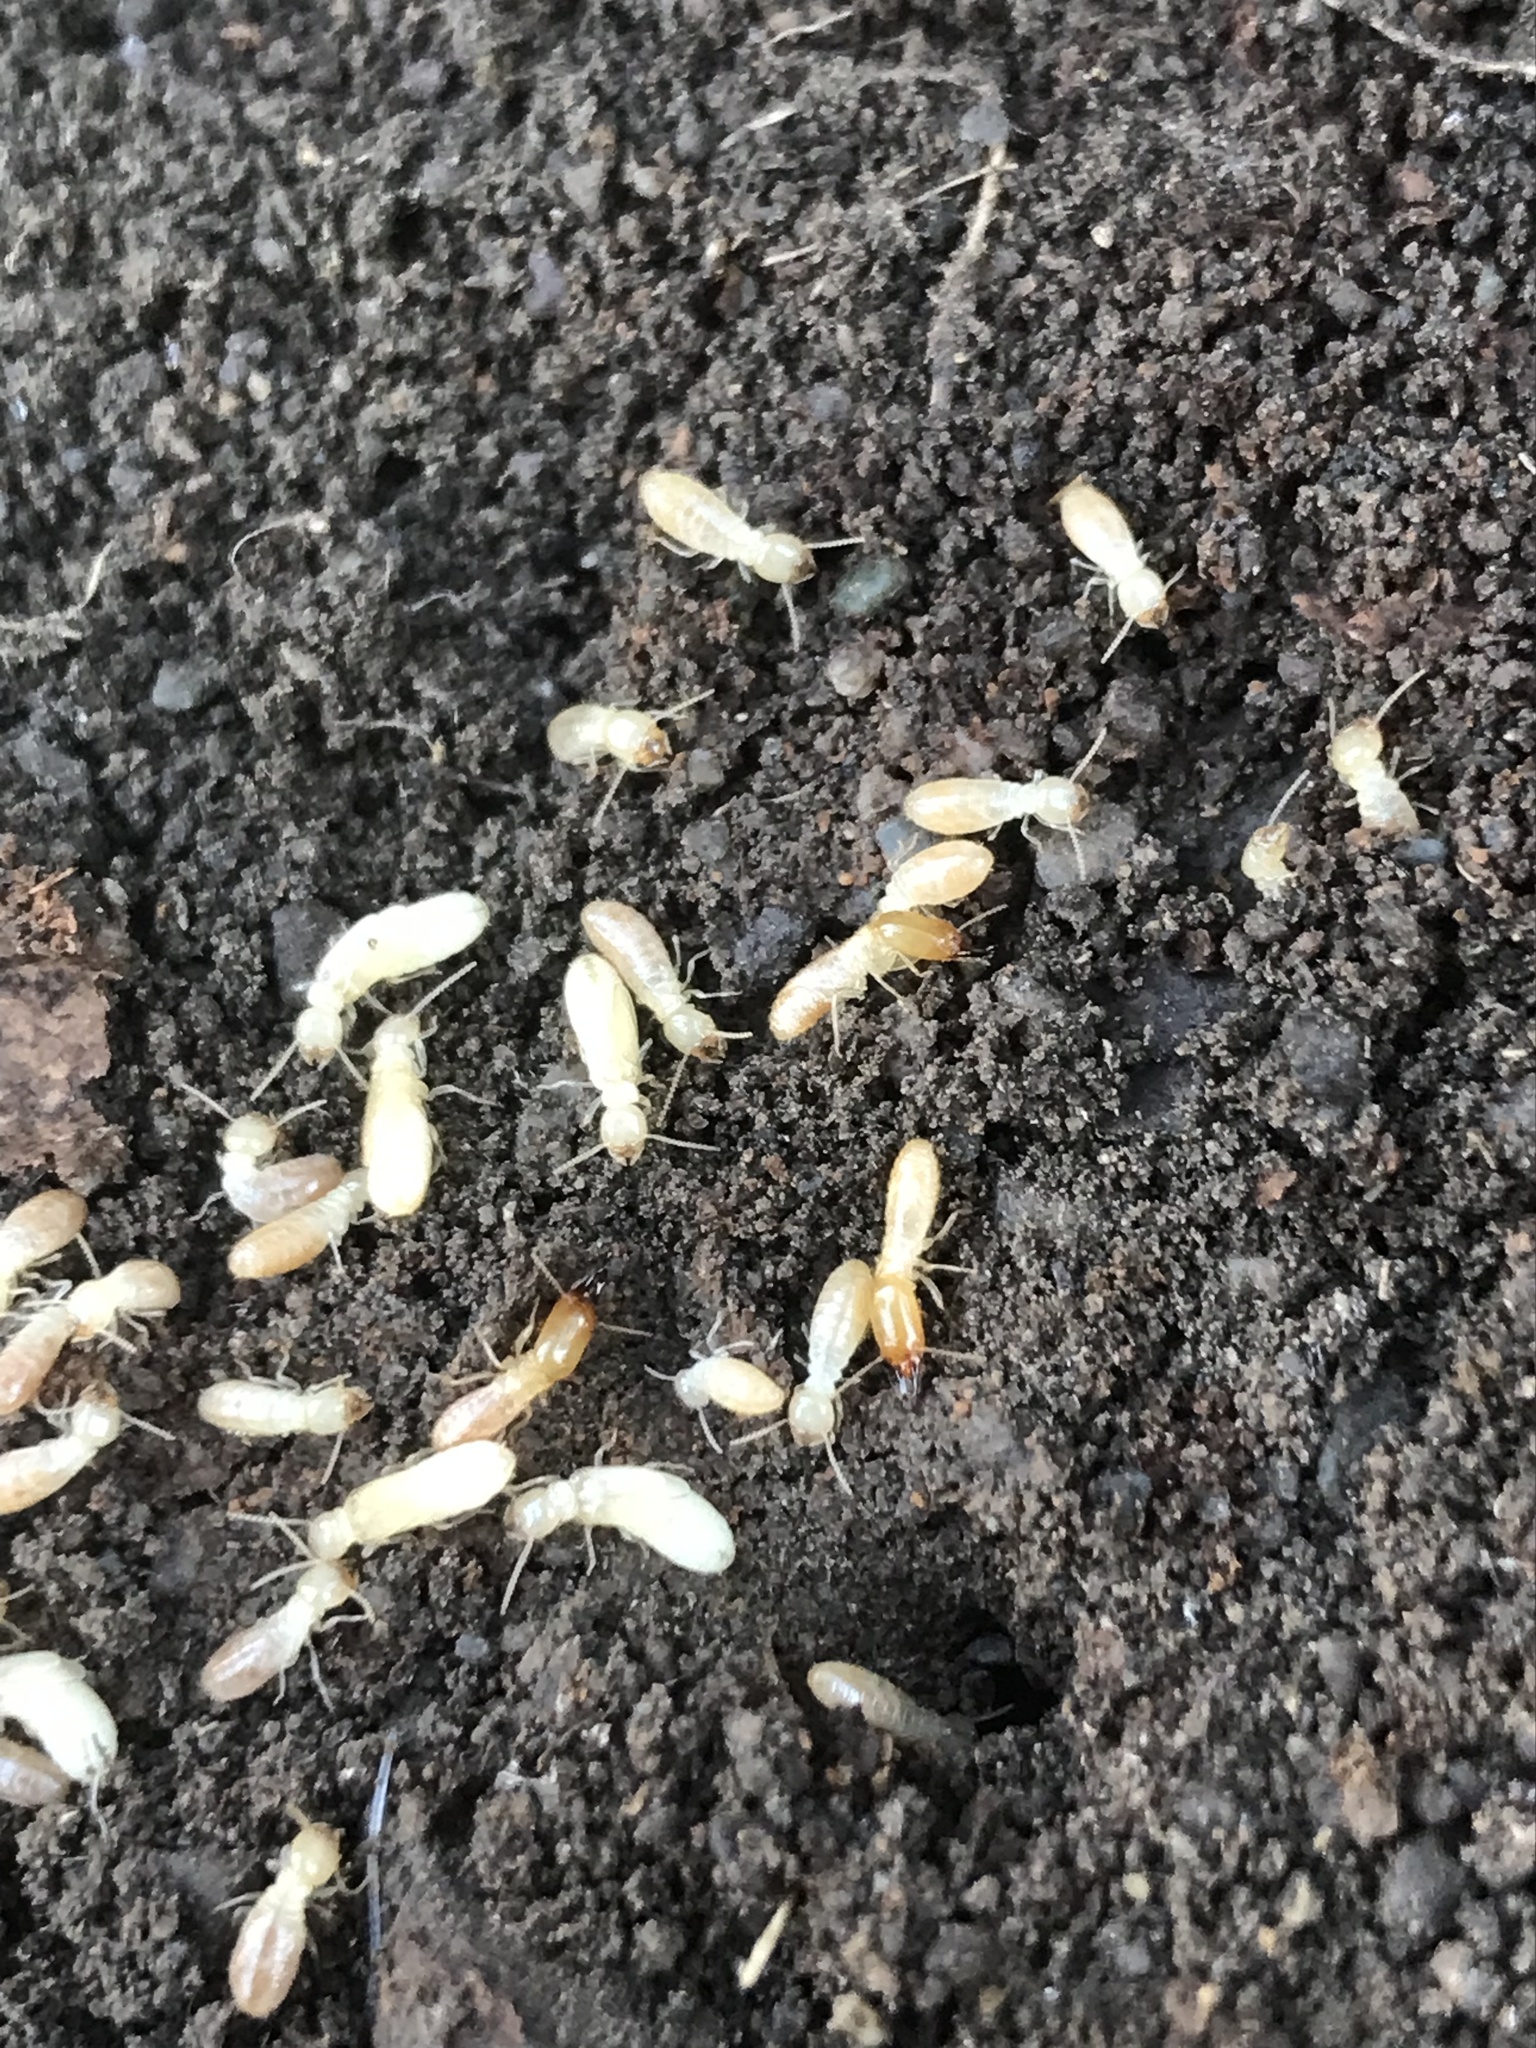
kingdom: Animalia
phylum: Arthropoda
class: Insecta
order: Blattodea
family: Rhinotermitidae
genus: Reticulitermes
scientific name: Reticulitermes hesperus
